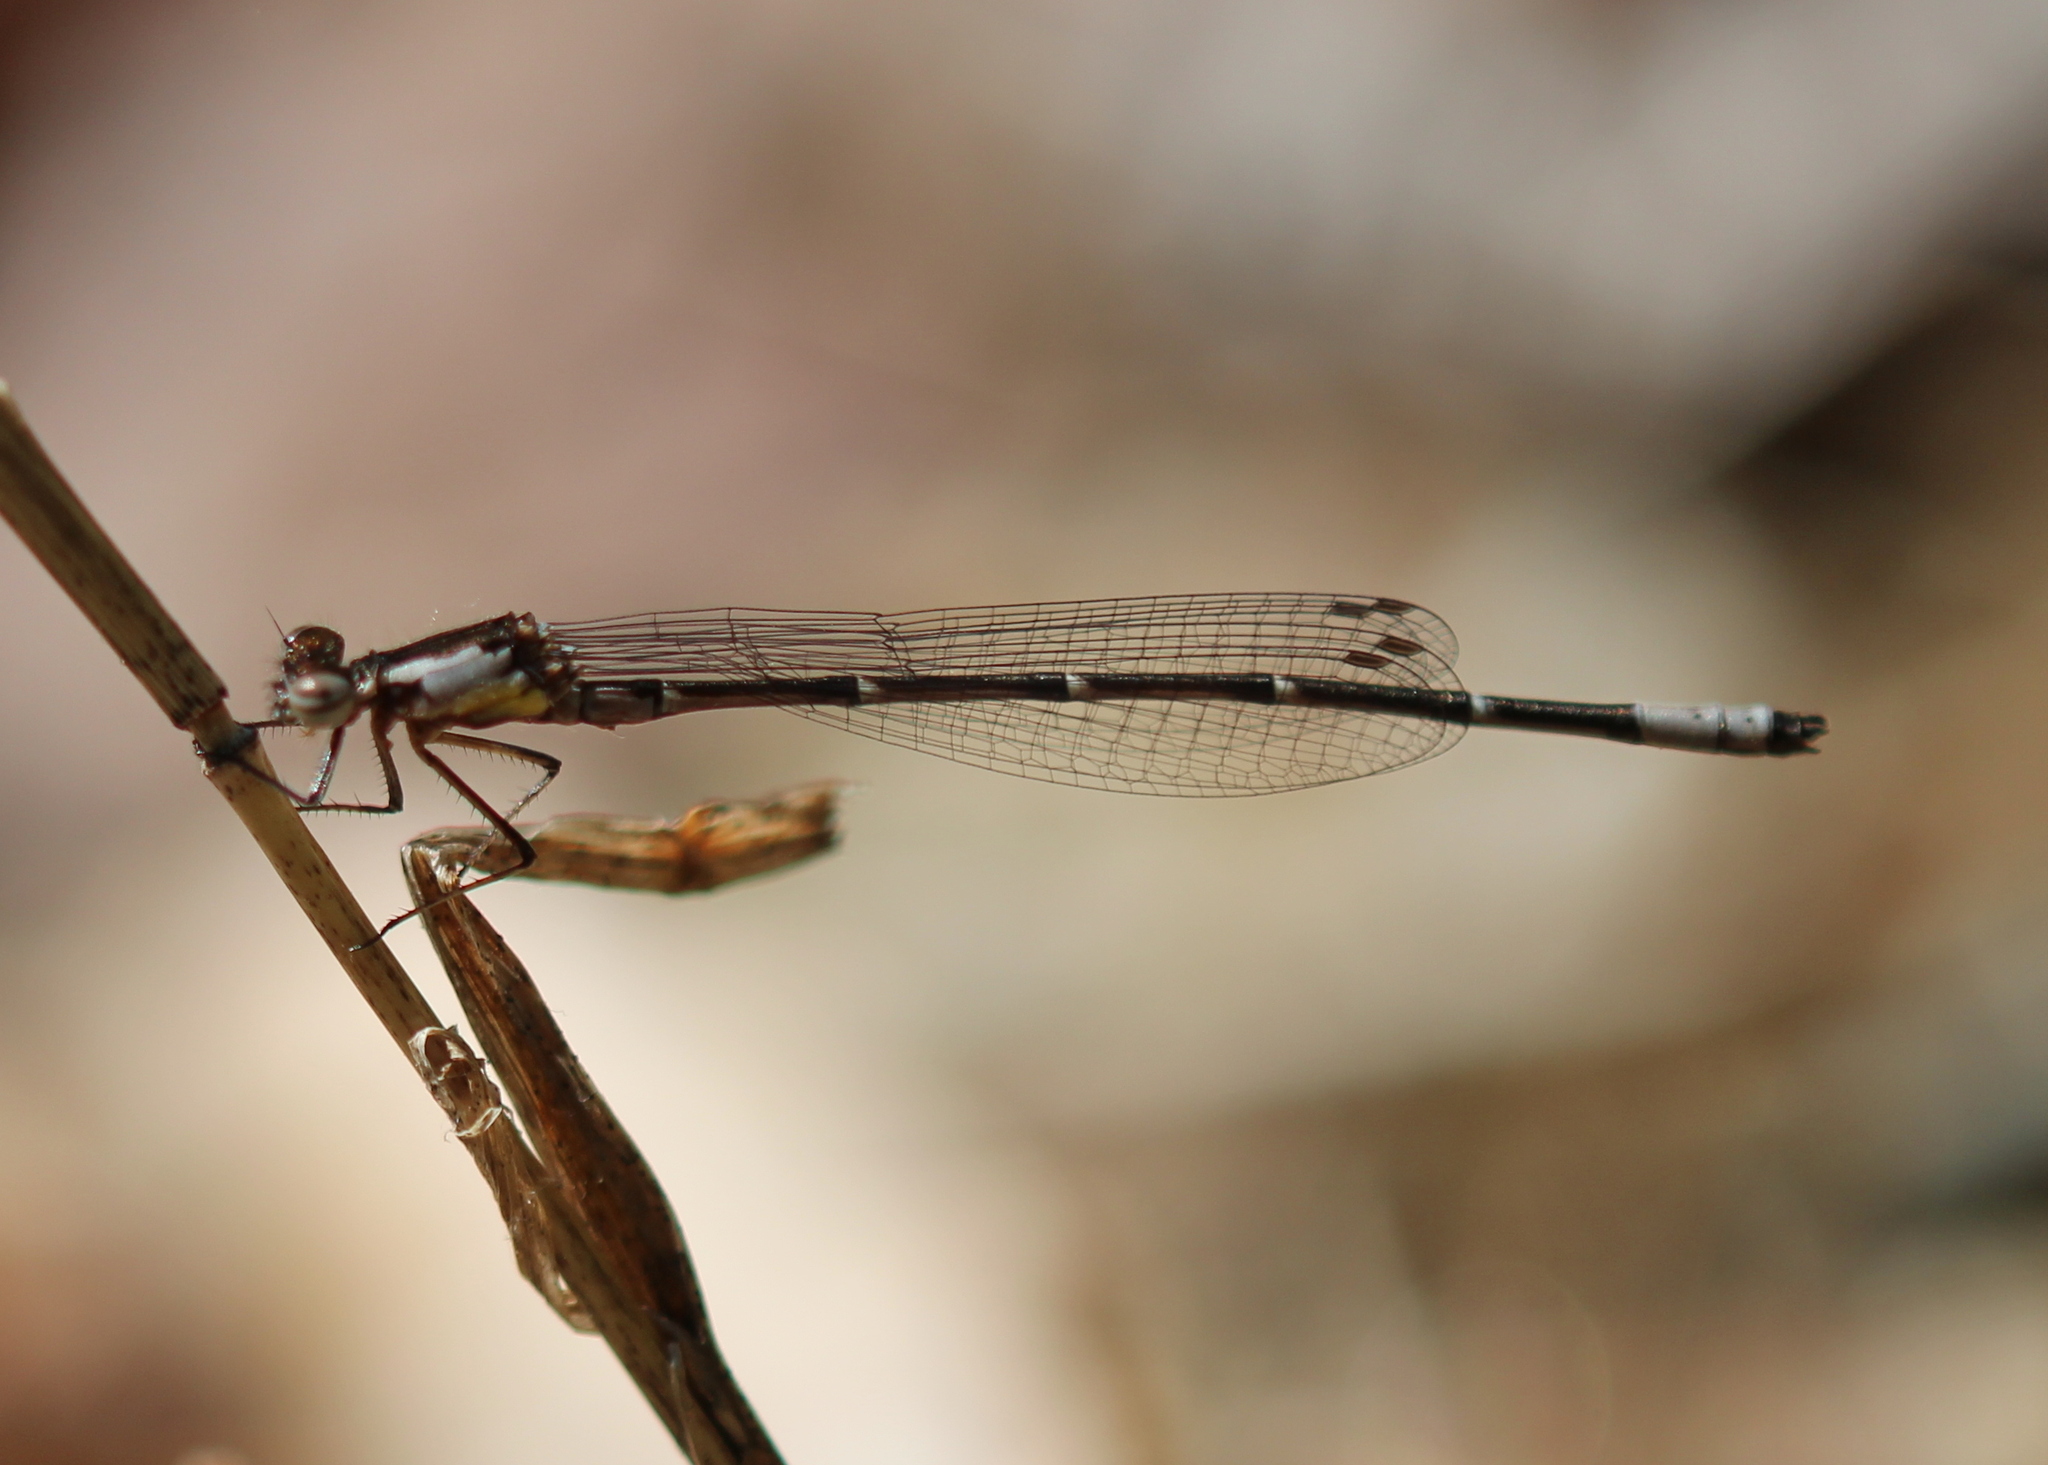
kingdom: Animalia
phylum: Arthropoda
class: Insecta
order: Odonata
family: Coenagrionidae
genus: Chromagrion
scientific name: Chromagrion conditum
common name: Aurora damsel
